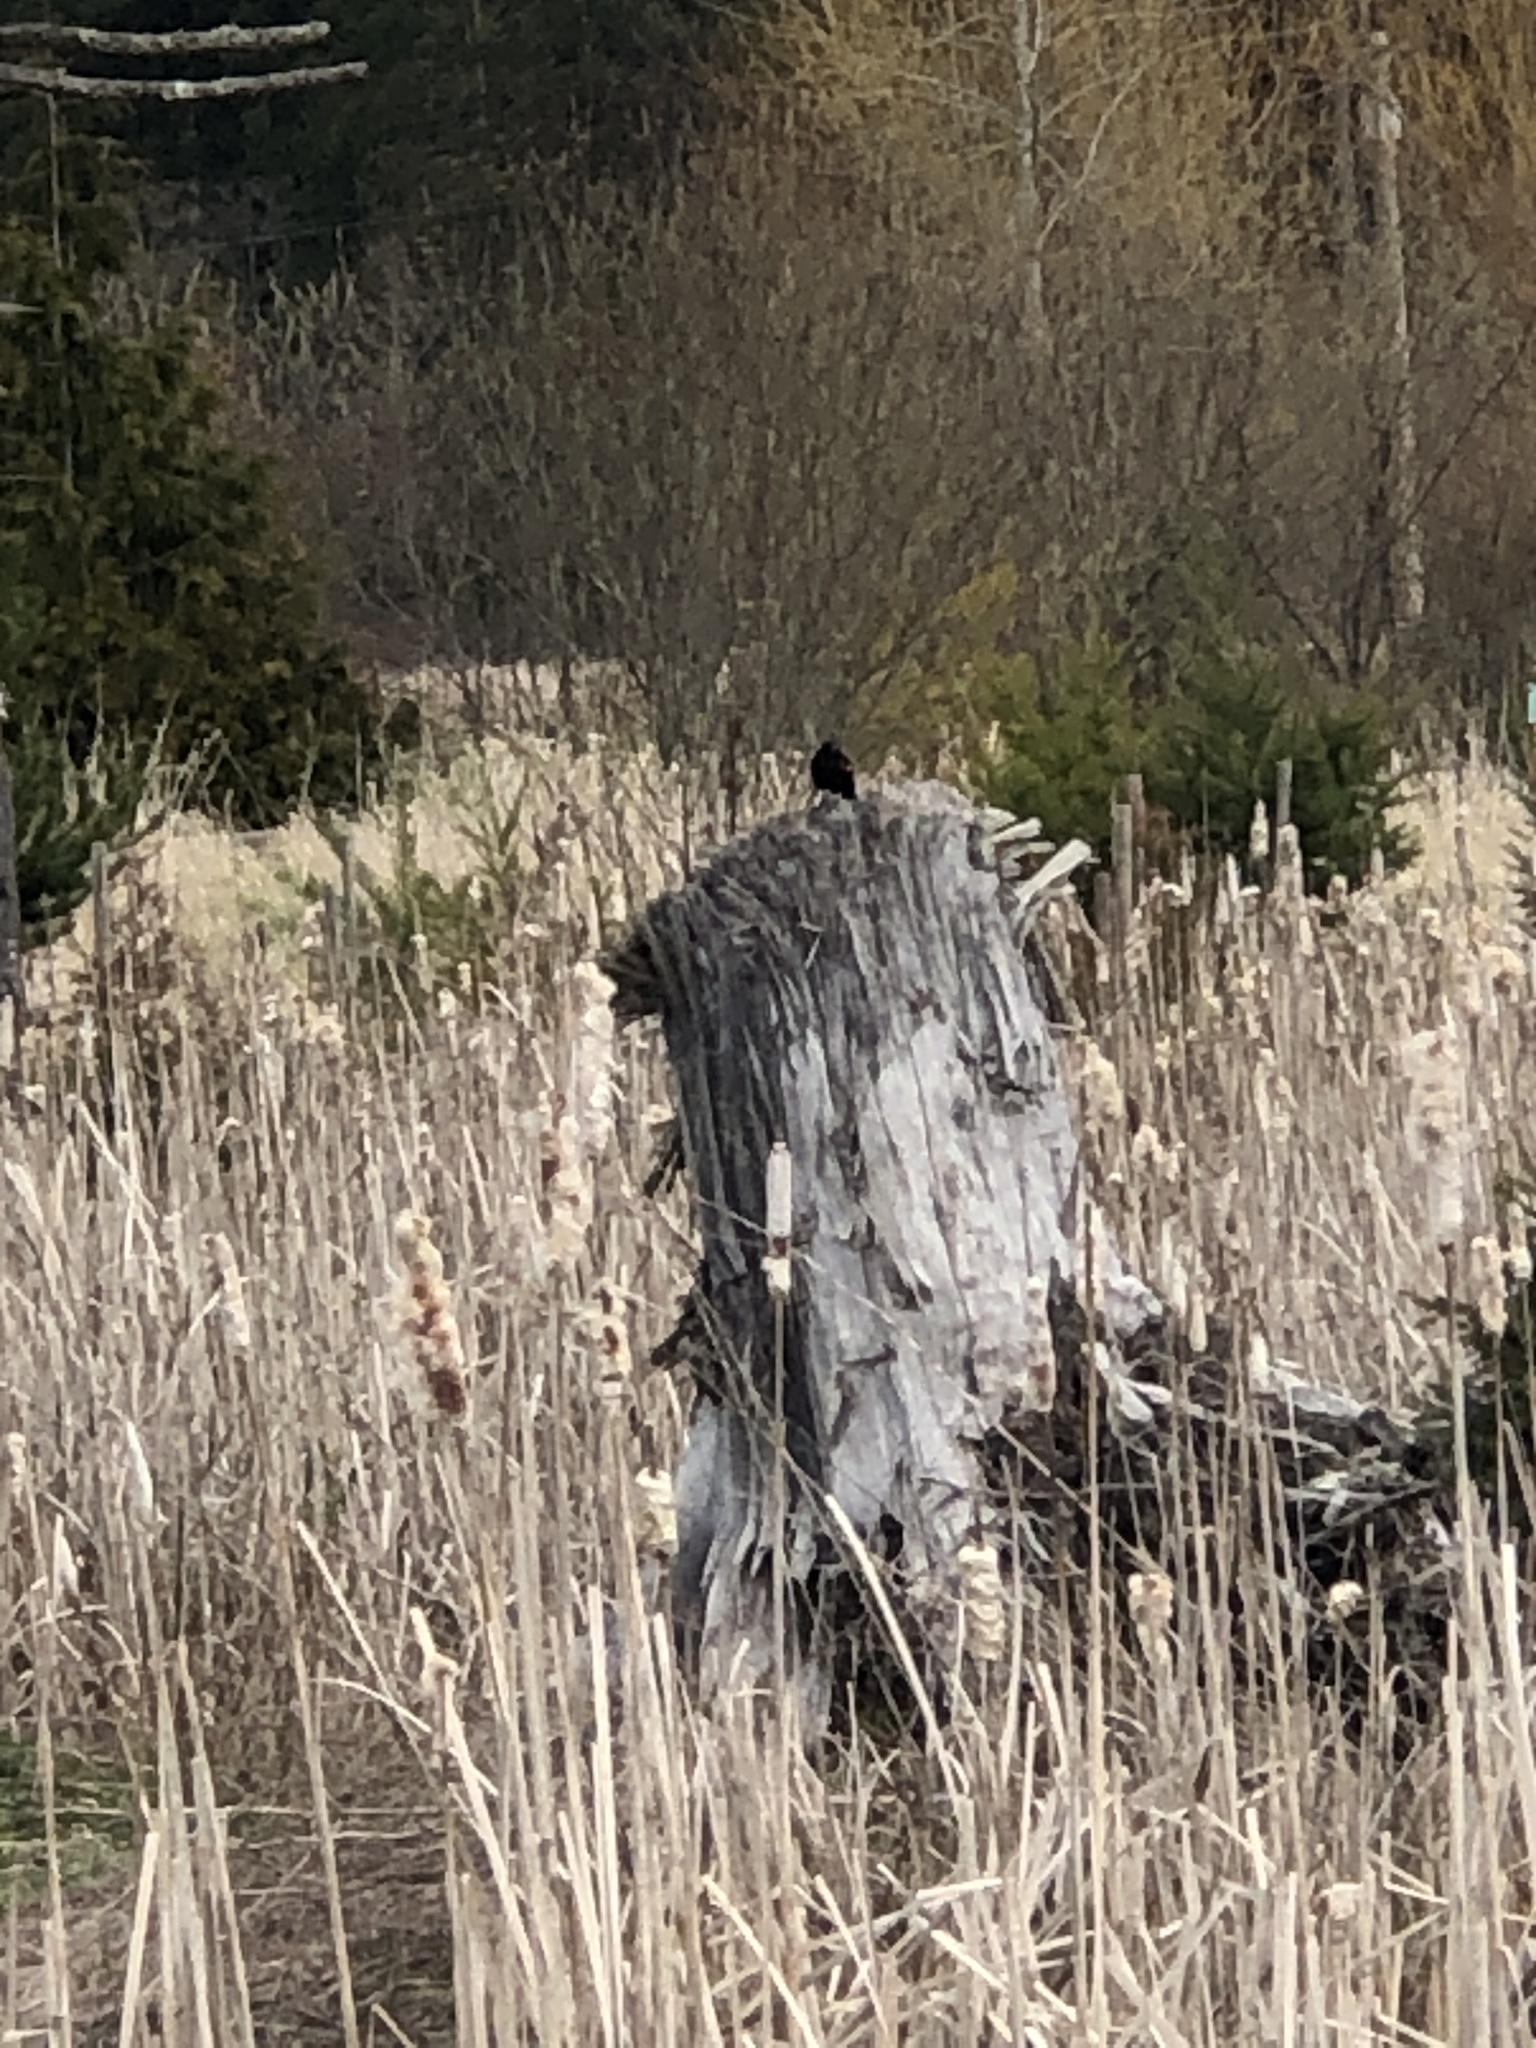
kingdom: Animalia
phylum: Chordata
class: Aves
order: Passeriformes
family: Icteridae
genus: Agelaius
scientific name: Agelaius phoeniceus
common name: Red-winged blackbird
